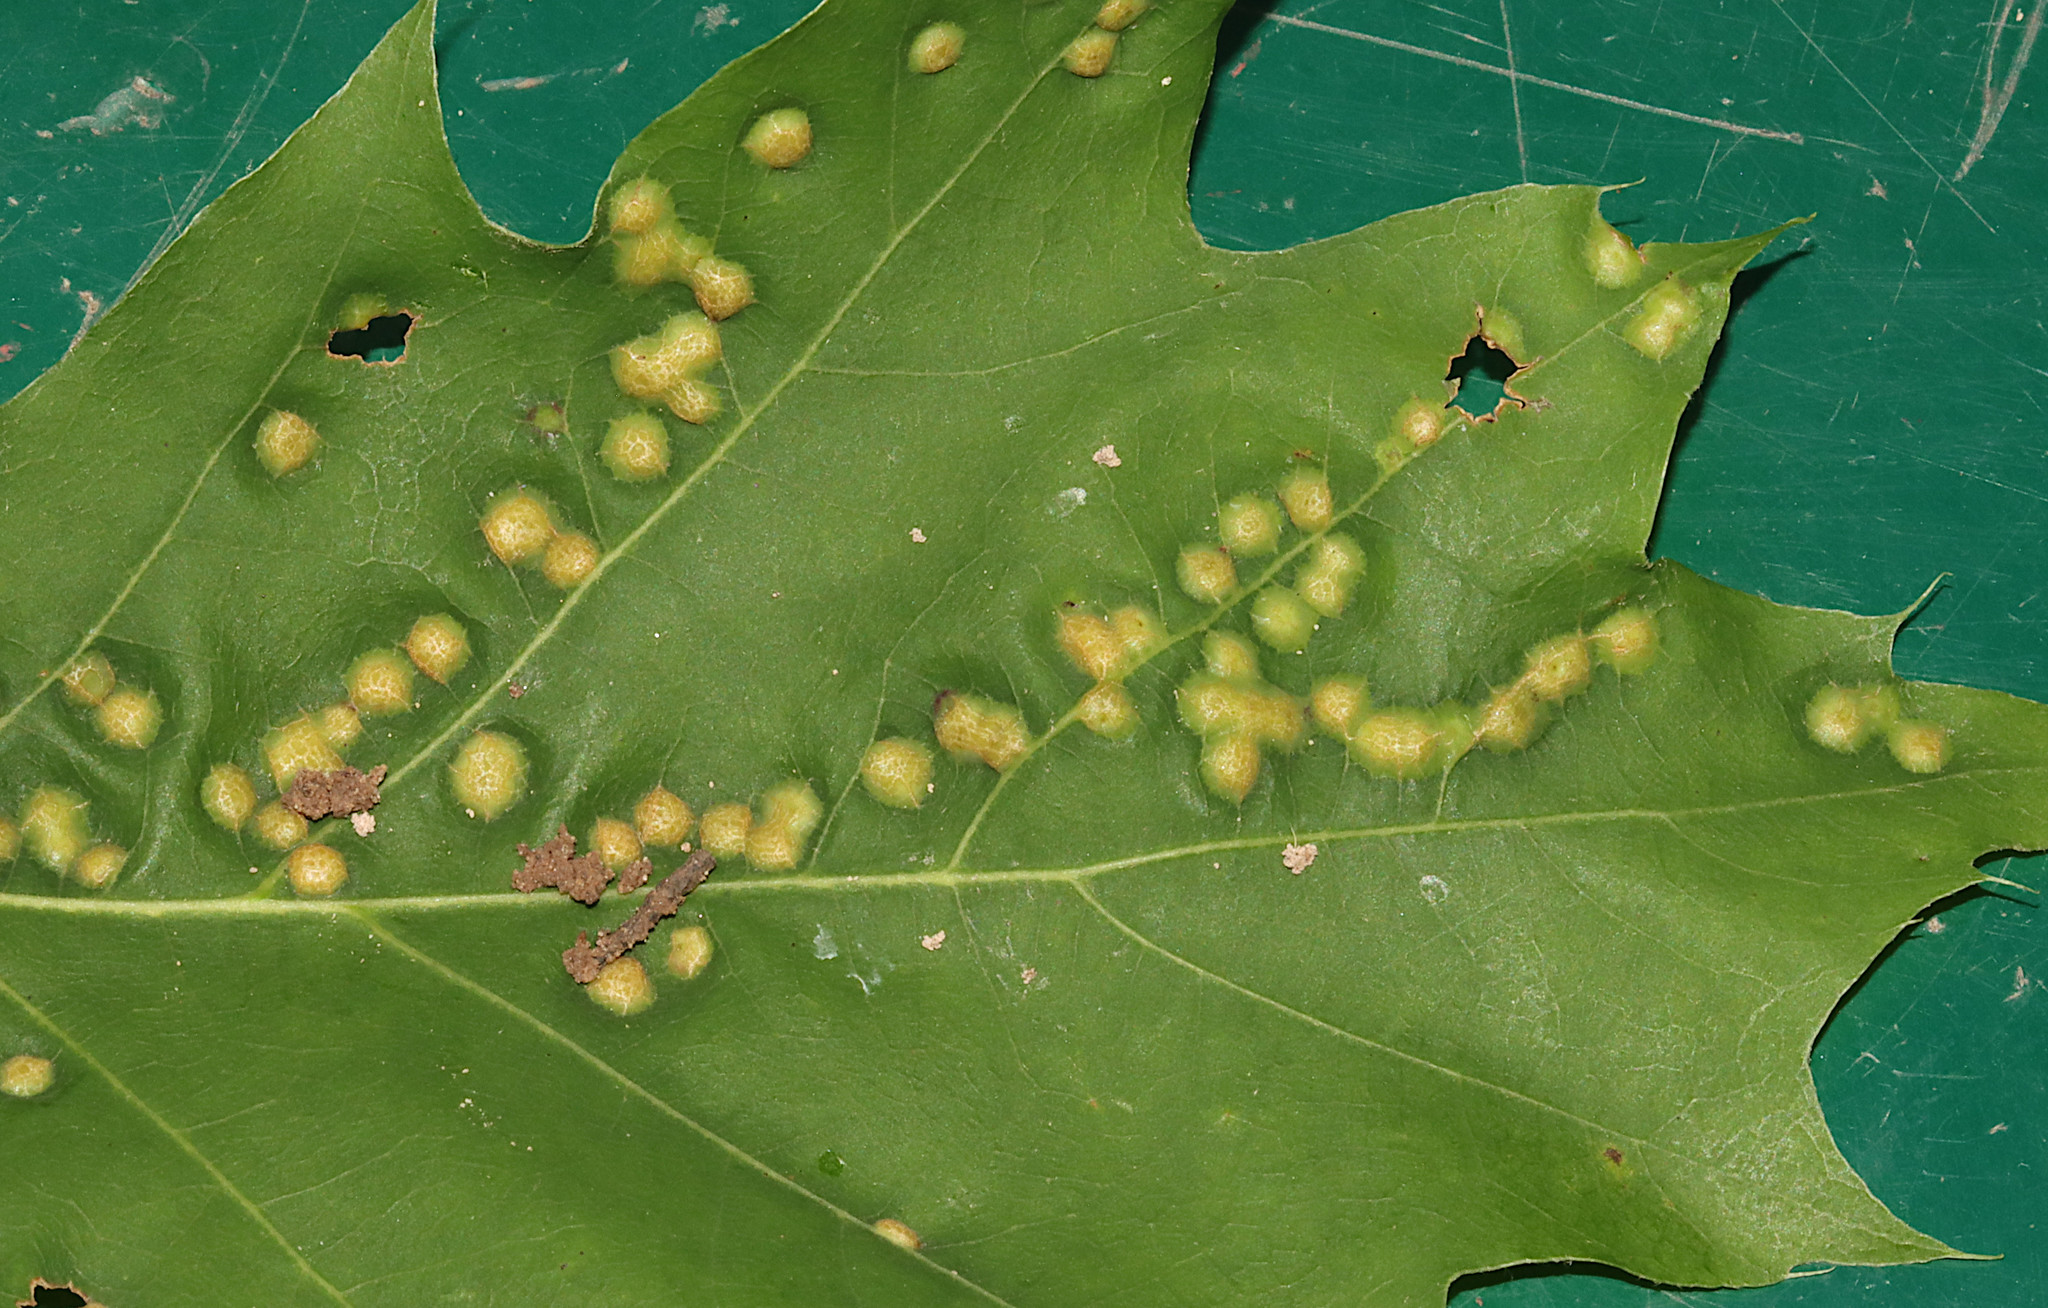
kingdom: Animalia
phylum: Arthropoda
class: Insecta
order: Diptera
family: Cecidomyiidae
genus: Polystepha
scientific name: Polystepha pilulae
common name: Oak leaf gall midge
